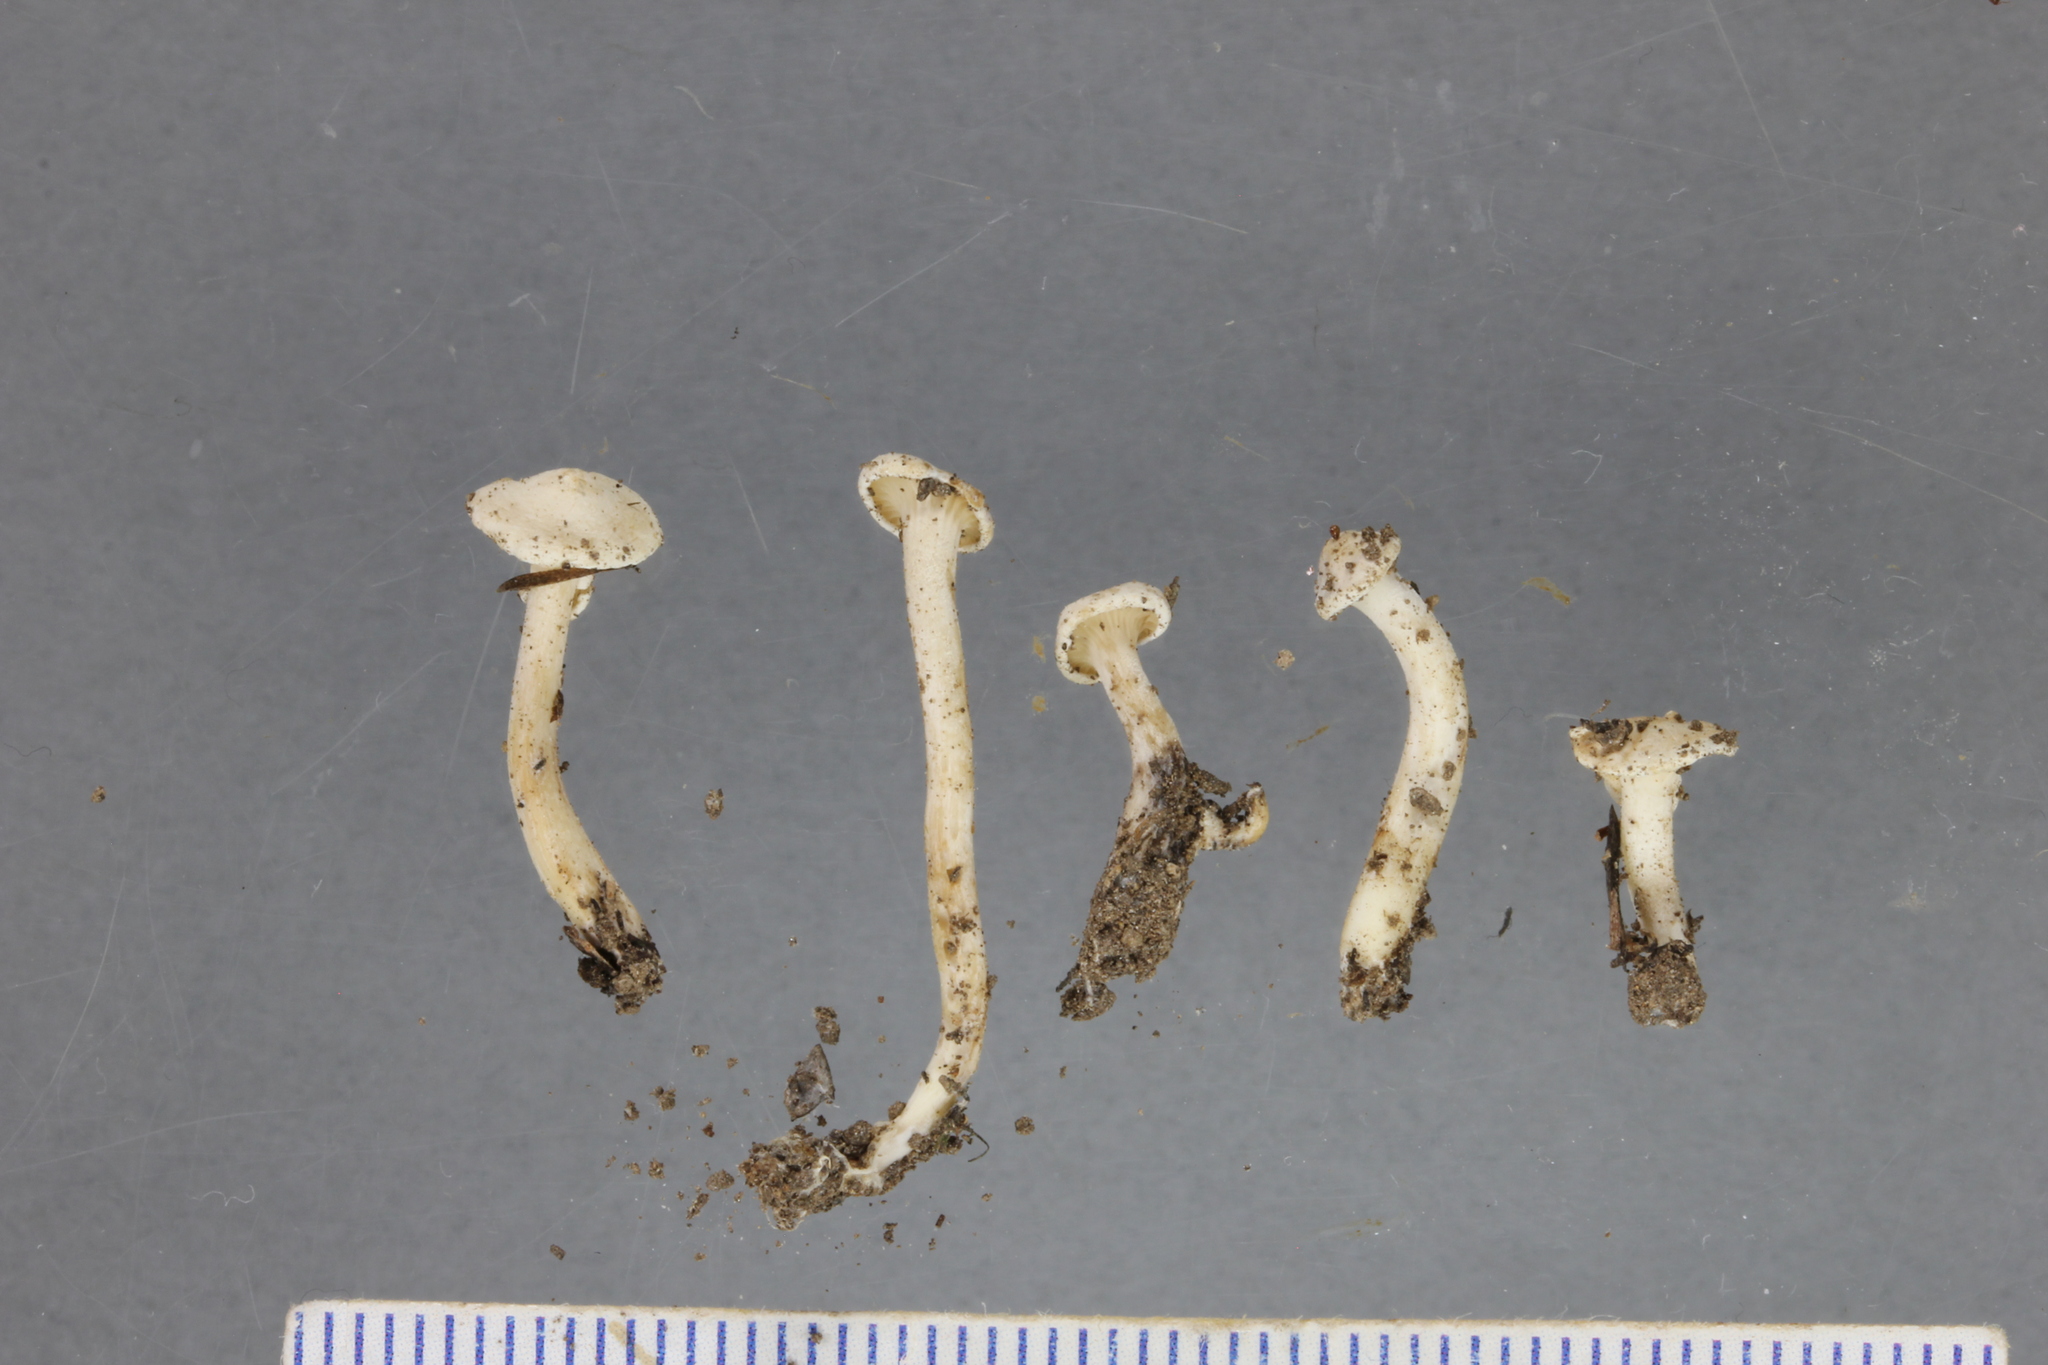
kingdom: Fungi
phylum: Basidiomycota
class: Agaricomycetes
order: Agaricales
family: Tricholomataceae
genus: Lulesia
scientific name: Lulesia
